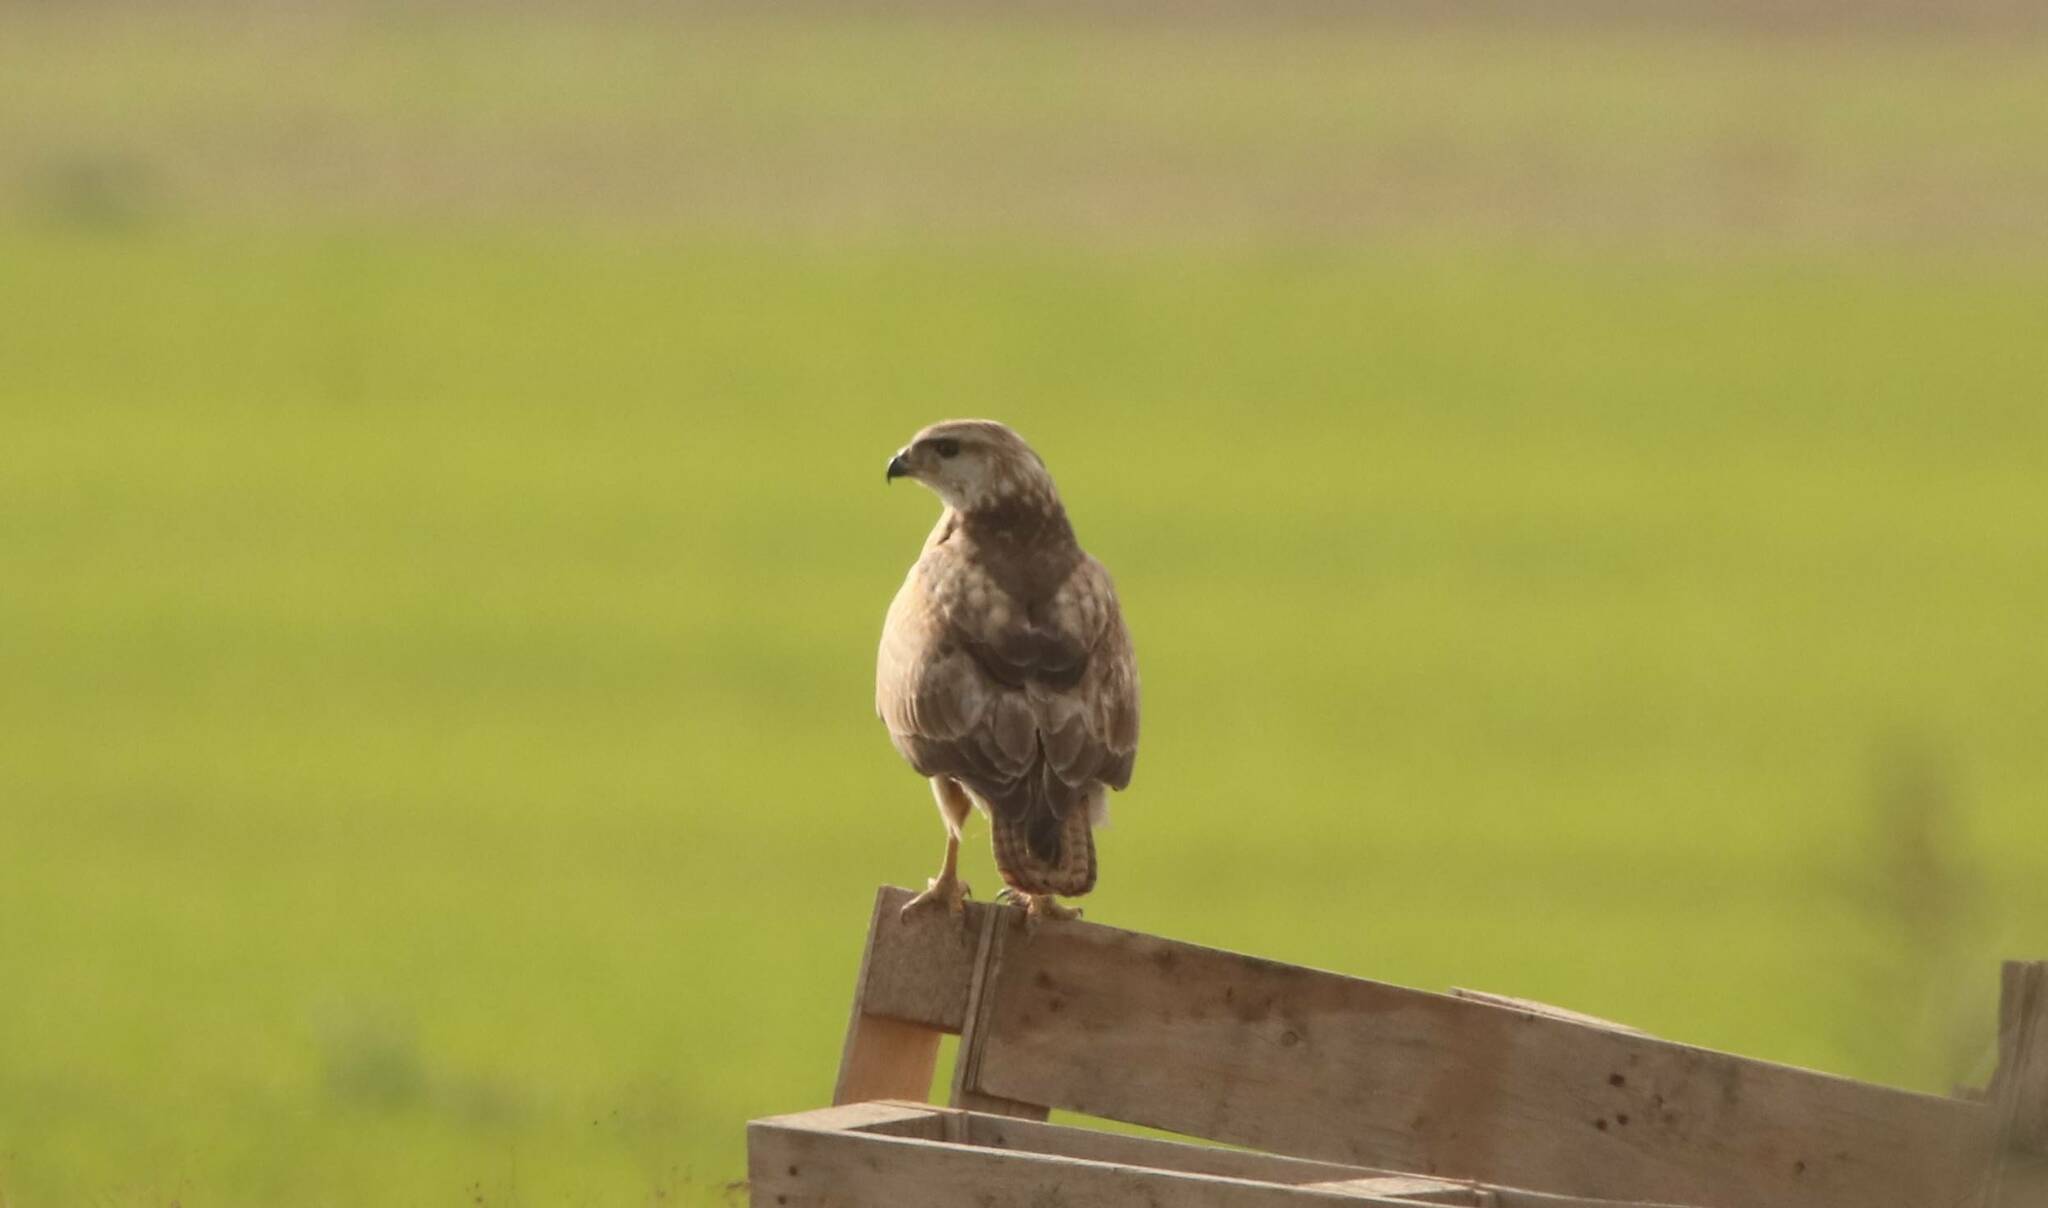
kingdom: Animalia
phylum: Chordata
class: Aves
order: Accipitriformes
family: Accipitridae
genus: Buteo
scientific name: Buteo rufinus
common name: Long-legged buzzard
